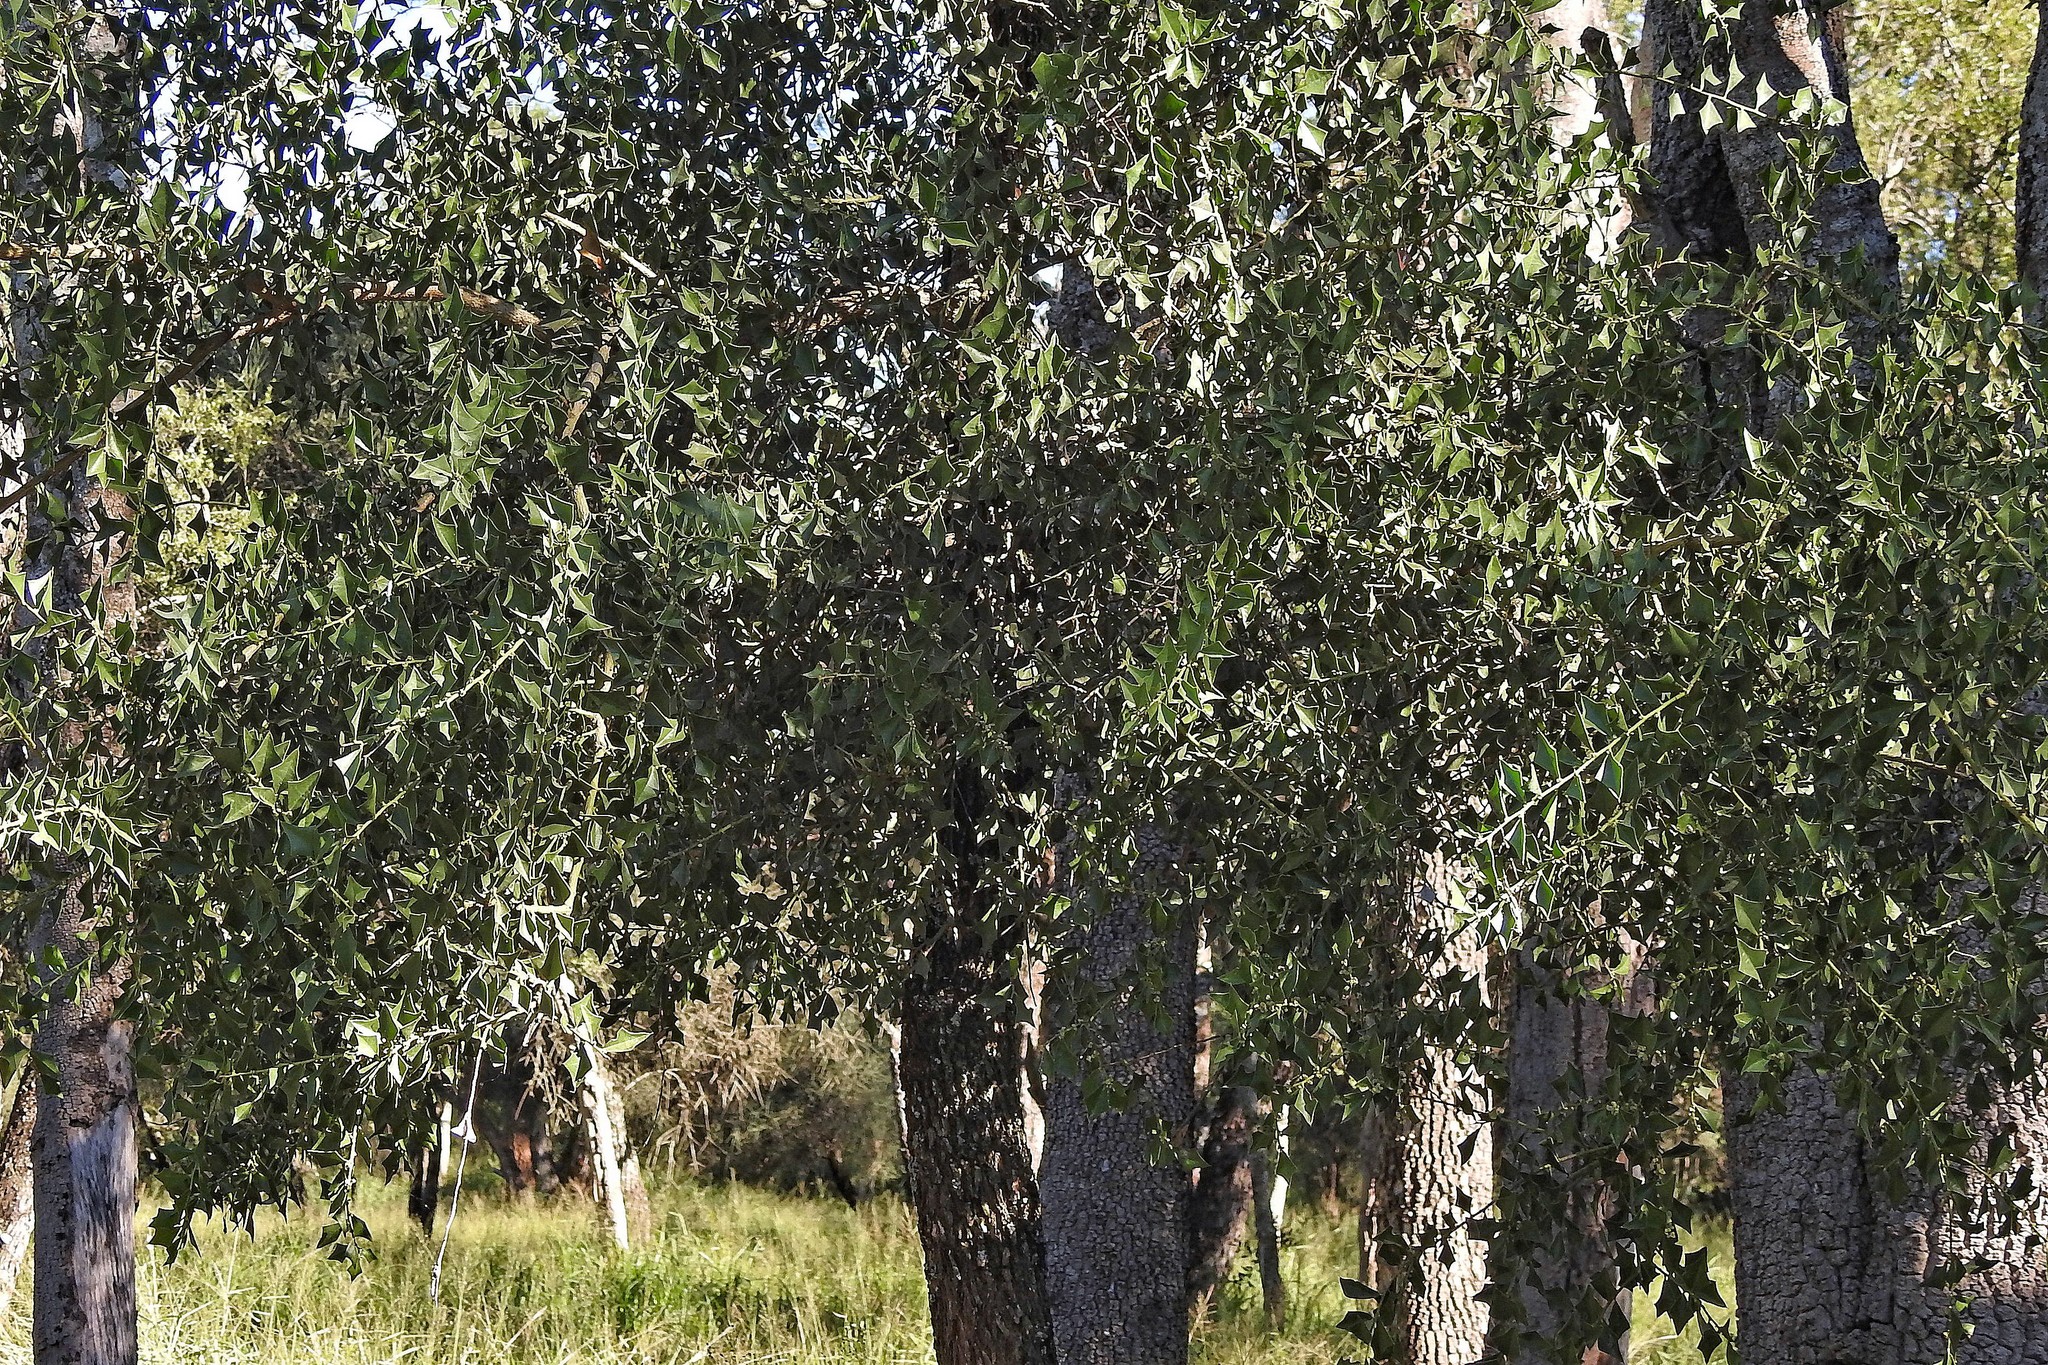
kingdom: Plantae
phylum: Tracheophyta
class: Magnoliopsida
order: Santalales
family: Cervantesiaceae
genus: Jodina
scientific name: Jodina rhombifolia
